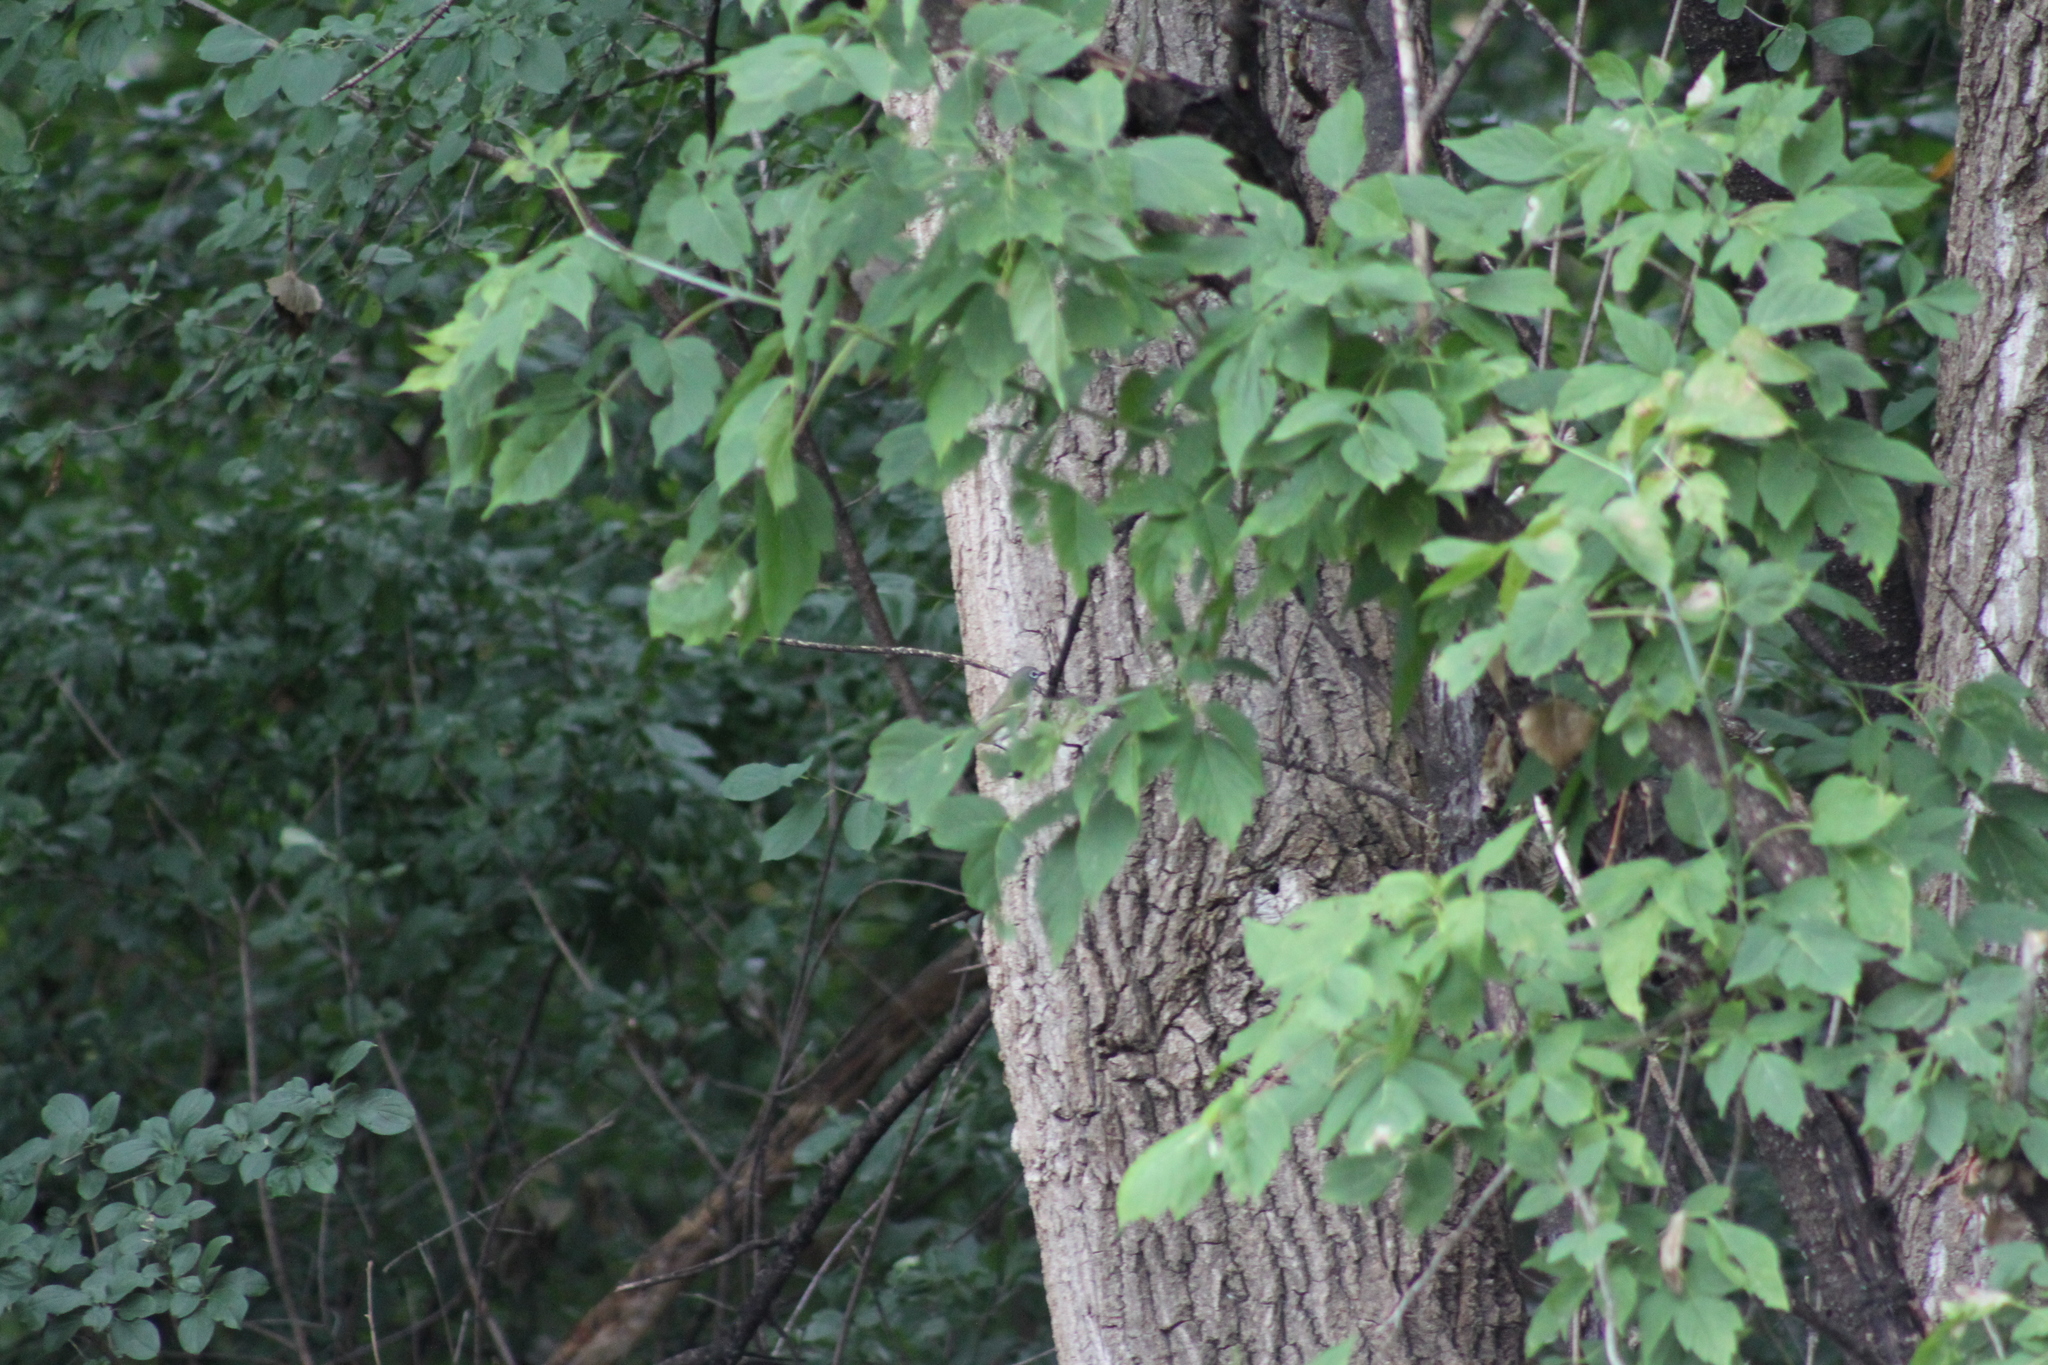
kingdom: Animalia
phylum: Chordata
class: Aves
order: Passeriformes
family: Vireonidae
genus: Vireo
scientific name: Vireo solitarius
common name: Blue-headed vireo
